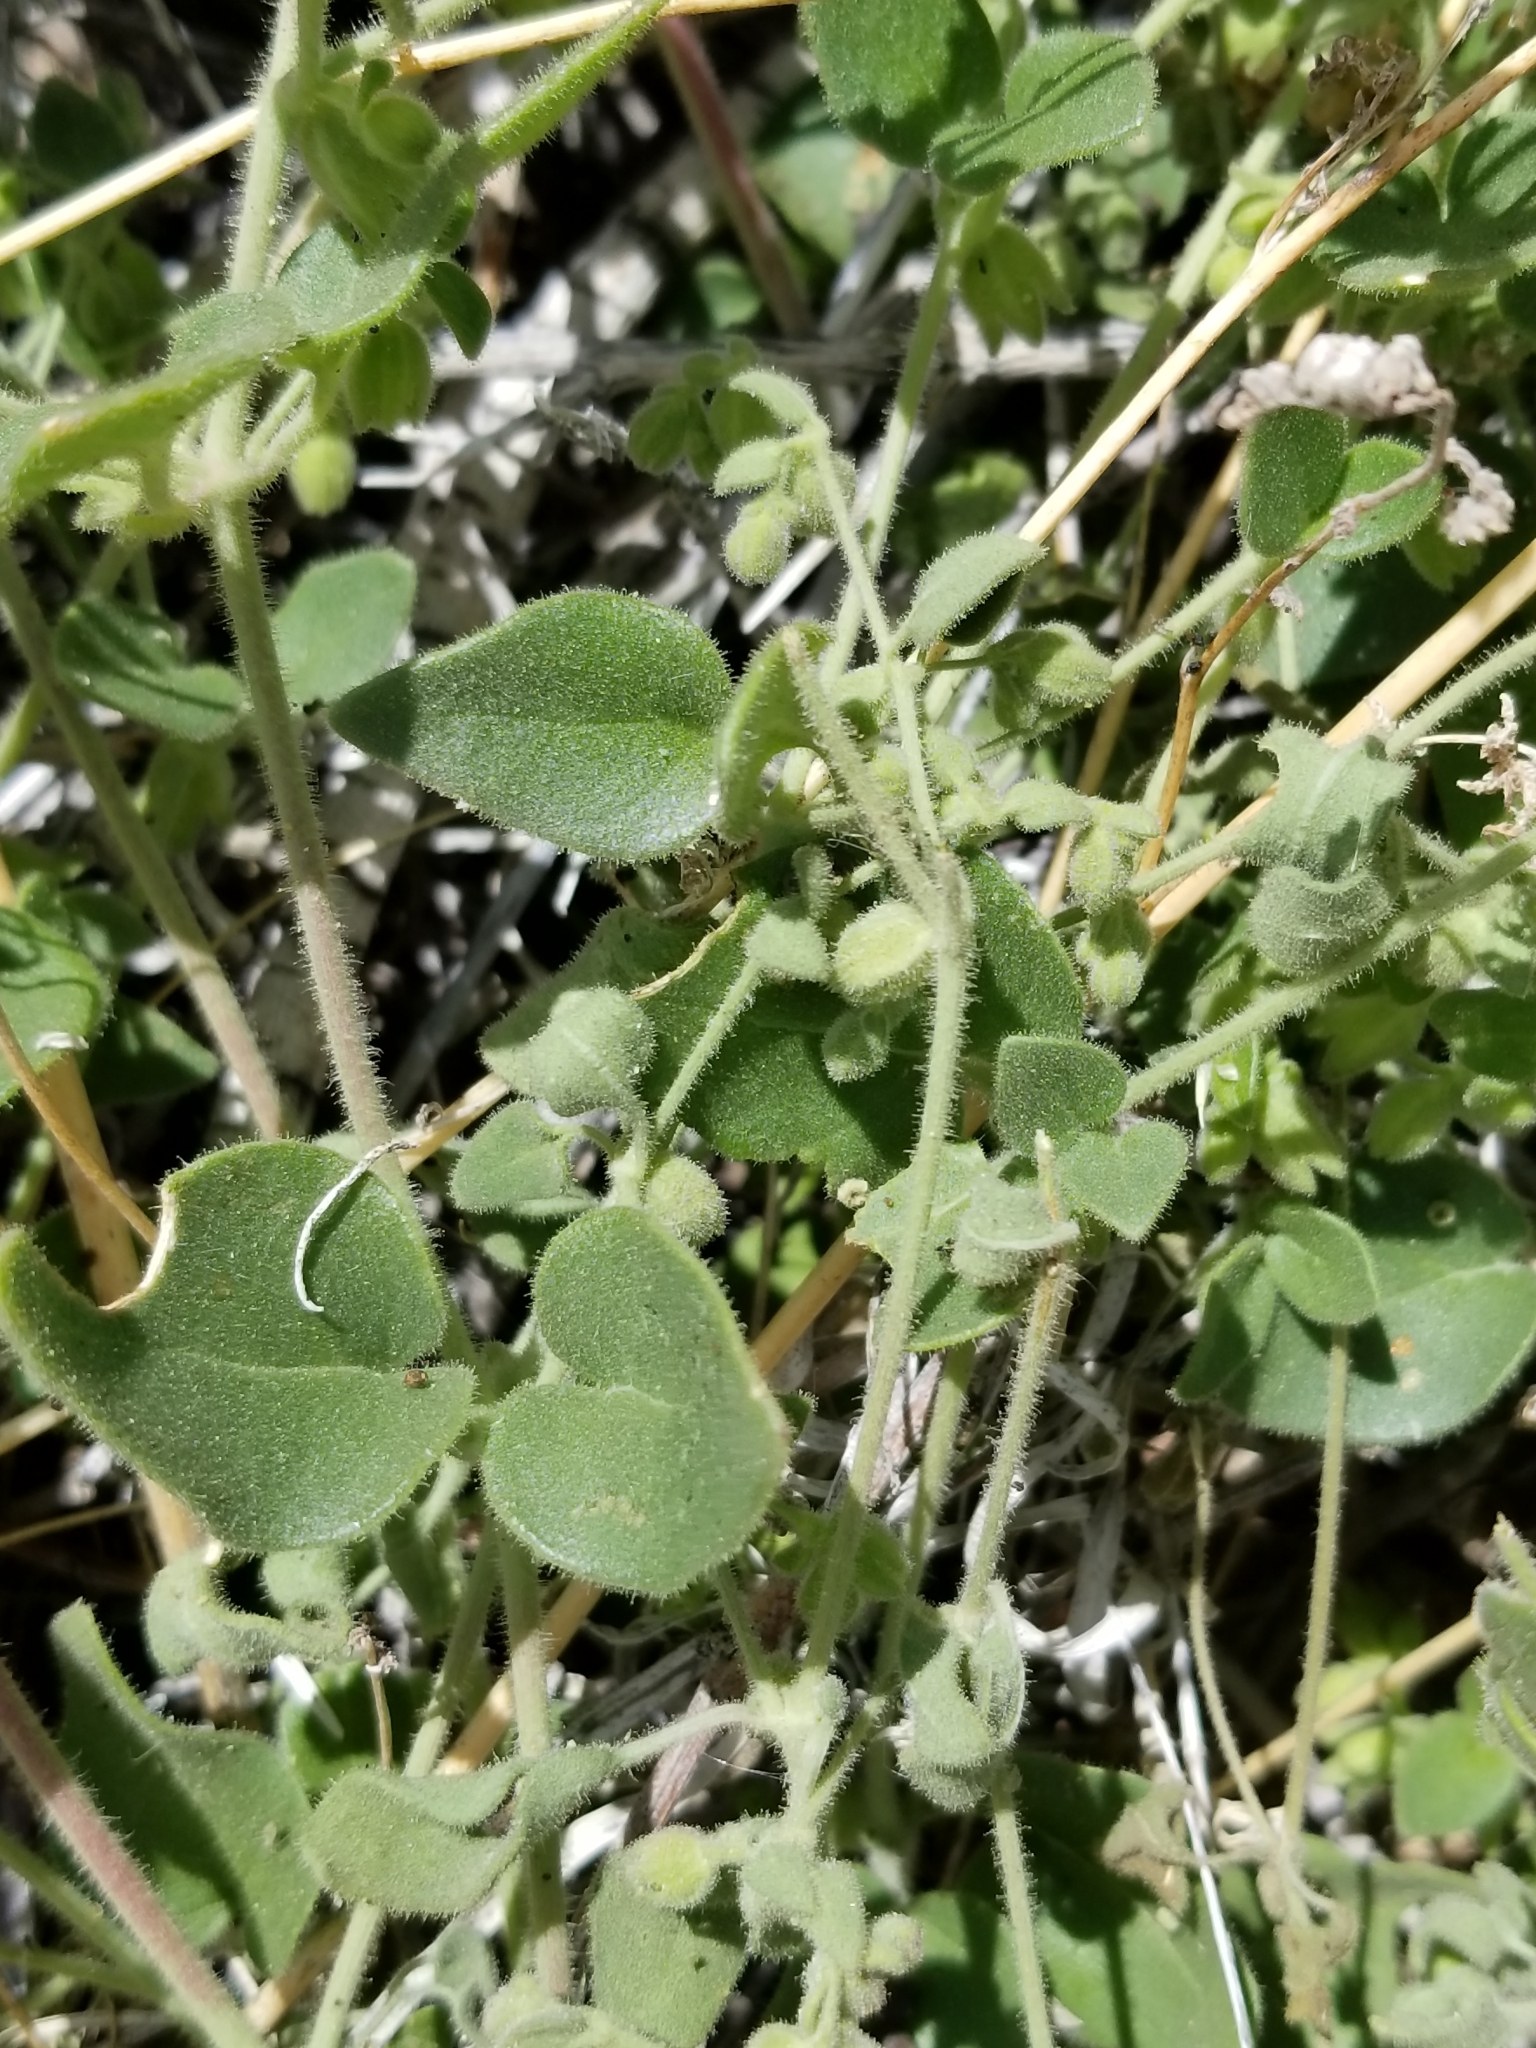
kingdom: Plantae
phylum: Tracheophyta
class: Magnoliopsida
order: Caryophyllales
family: Nyctaginaceae
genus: Mirabilis
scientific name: Mirabilis laevis
